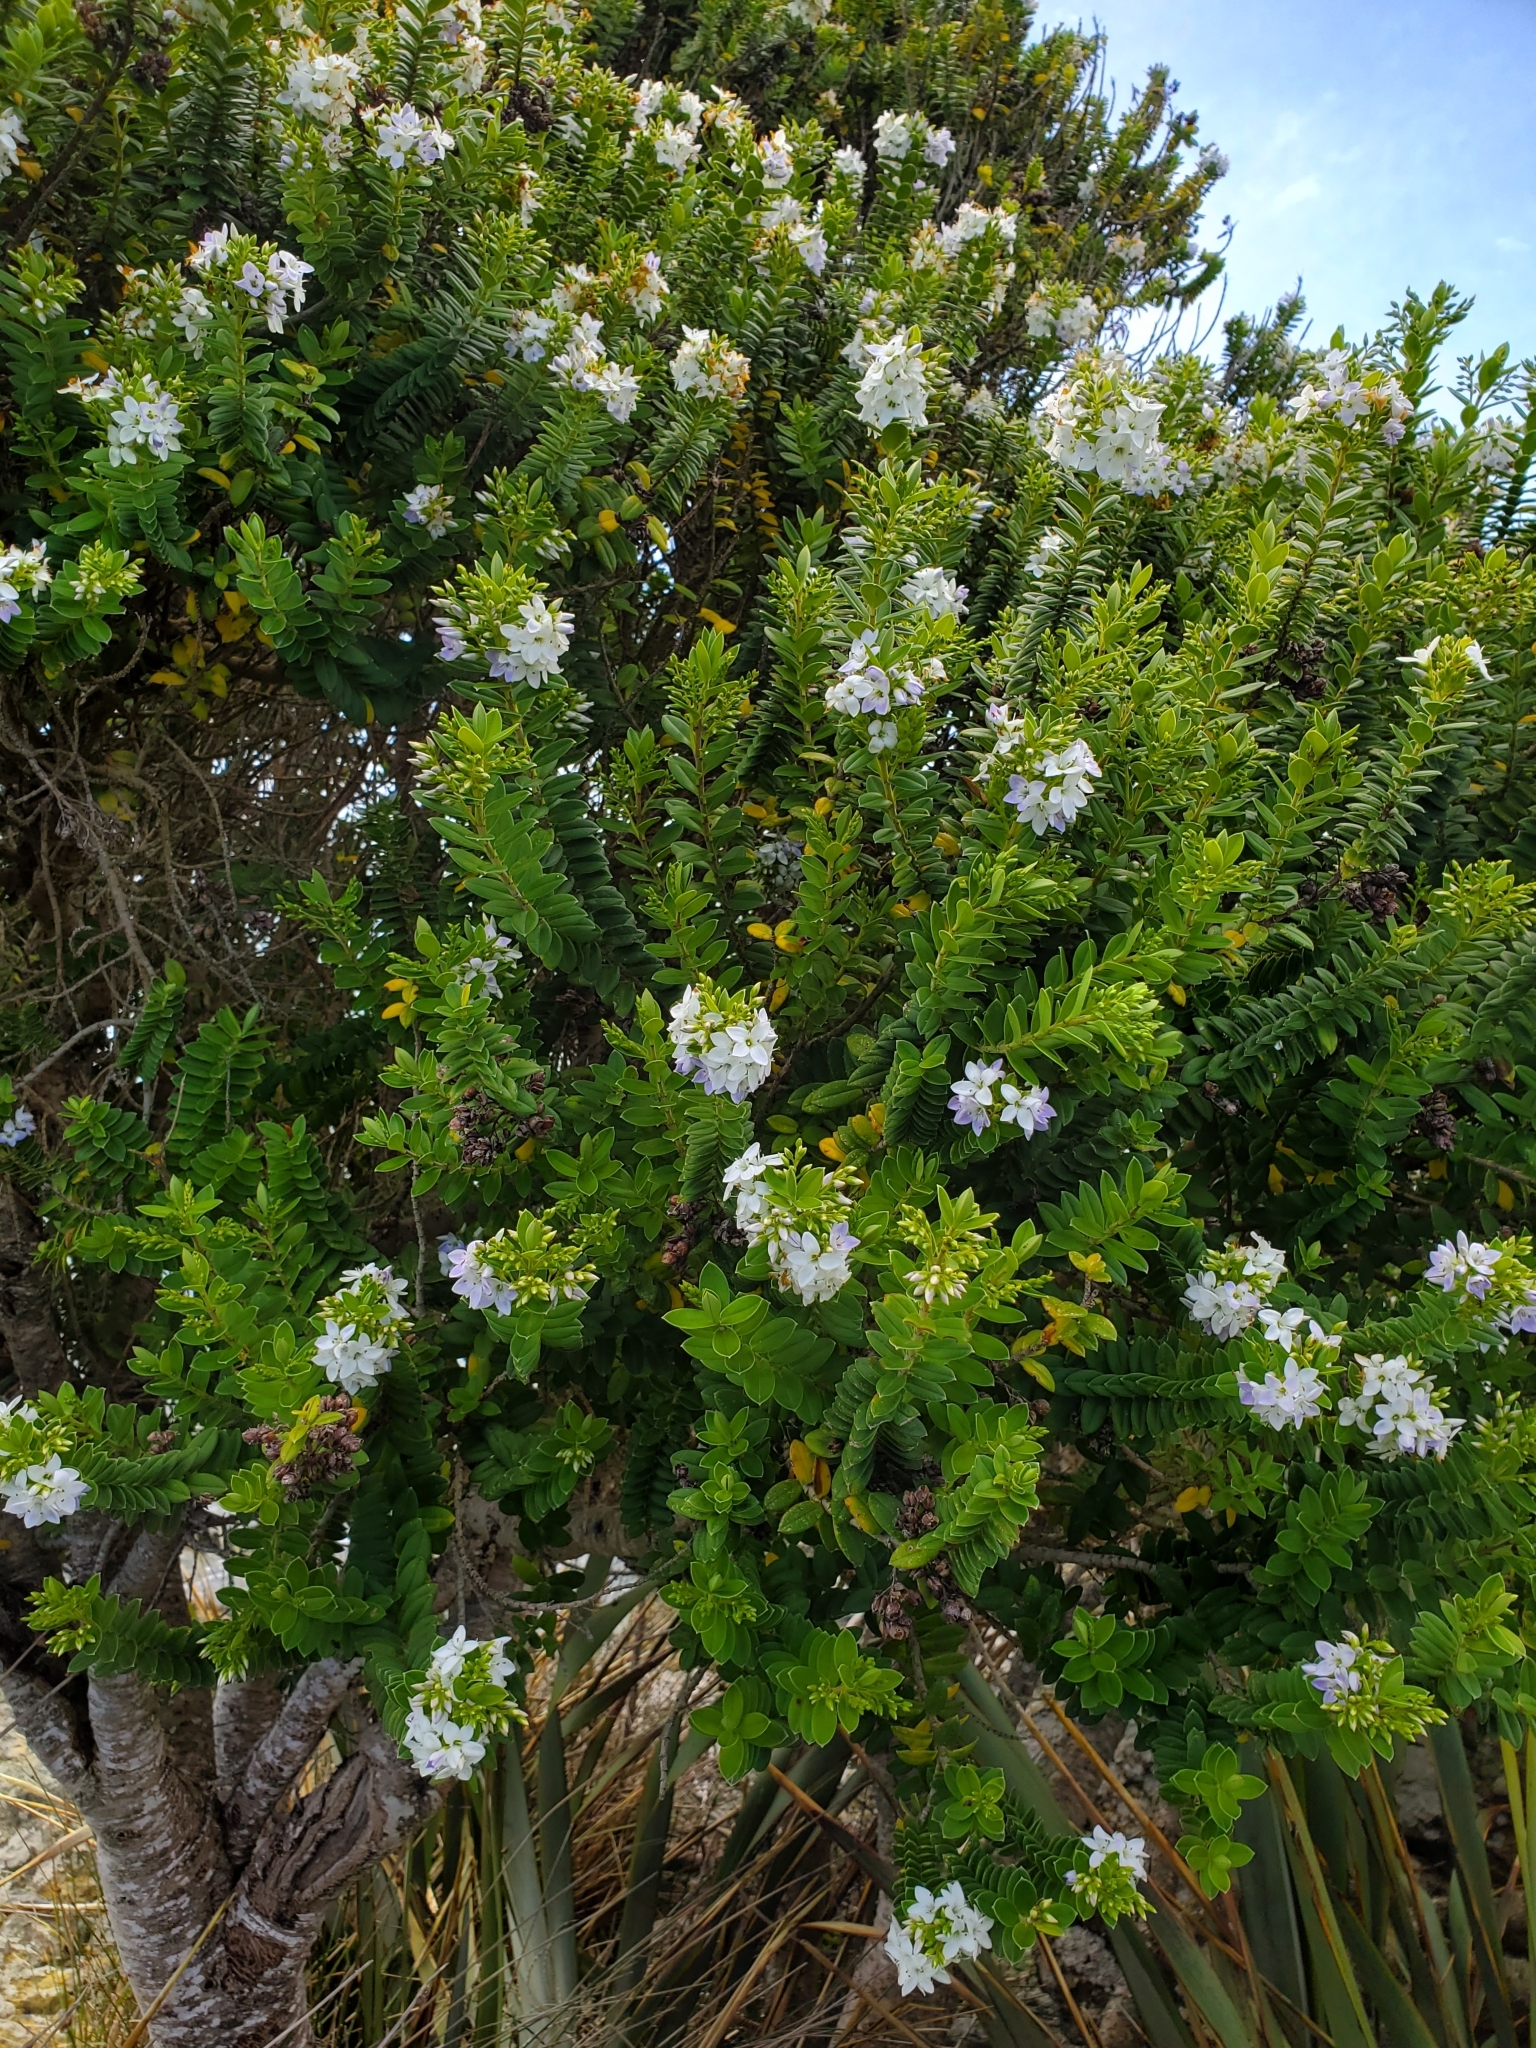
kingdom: Plantae
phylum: Tracheophyta
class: Magnoliopsida
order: Lamiales
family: Plantaginaceae
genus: Veronica
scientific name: Veronica elliptica
